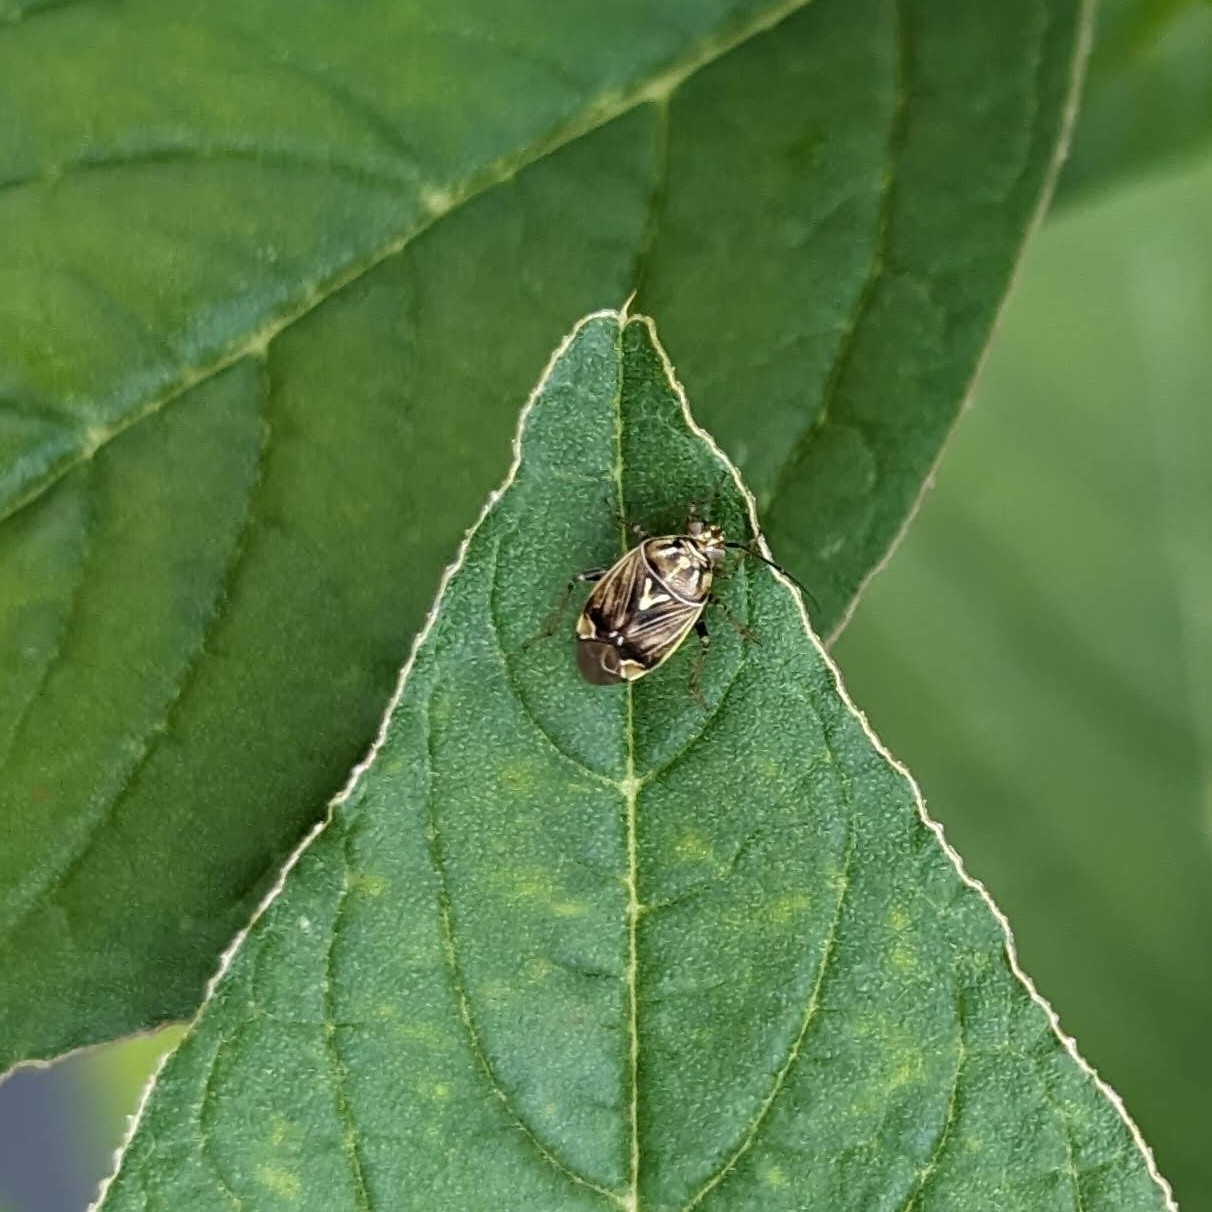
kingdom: Animalia
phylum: Arthropoda
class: Insecta
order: Hemiptera
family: Miridae
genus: Lygus
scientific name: Lygus lineolaris
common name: North american tarnished plant bug
